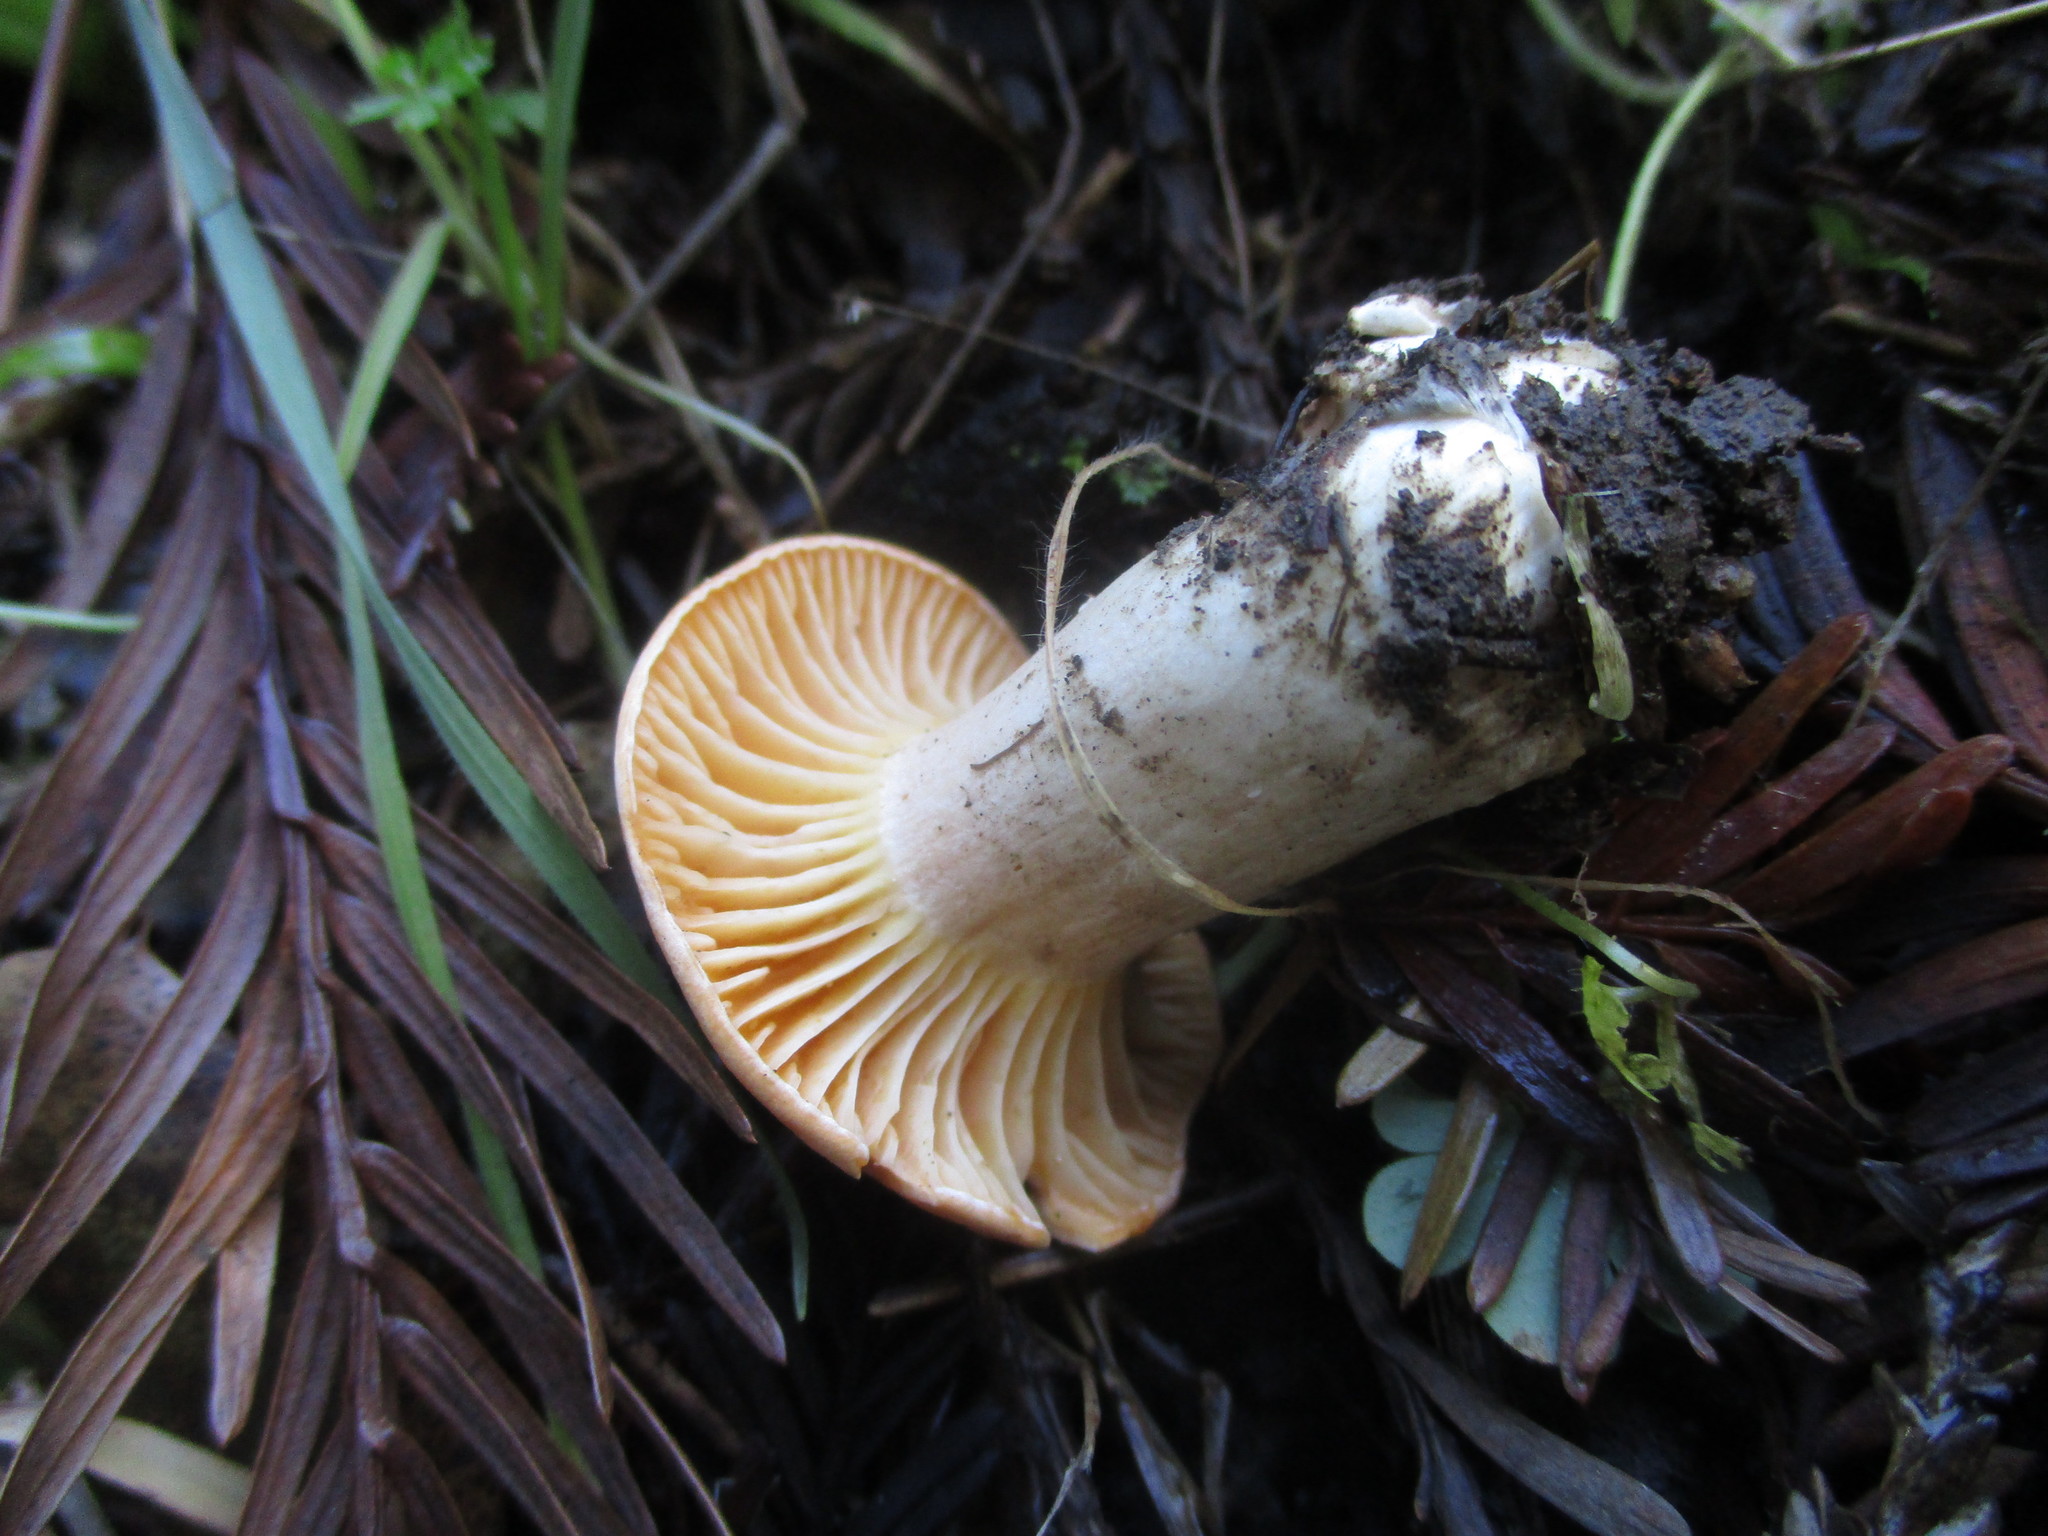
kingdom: Fungi
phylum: Basidiomycota
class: Agaricomycetes
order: Agaricales
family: Hygrophoraceae
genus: Cuphophyllus
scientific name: Cuphophyllus pratensis
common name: Meadow waxcap
